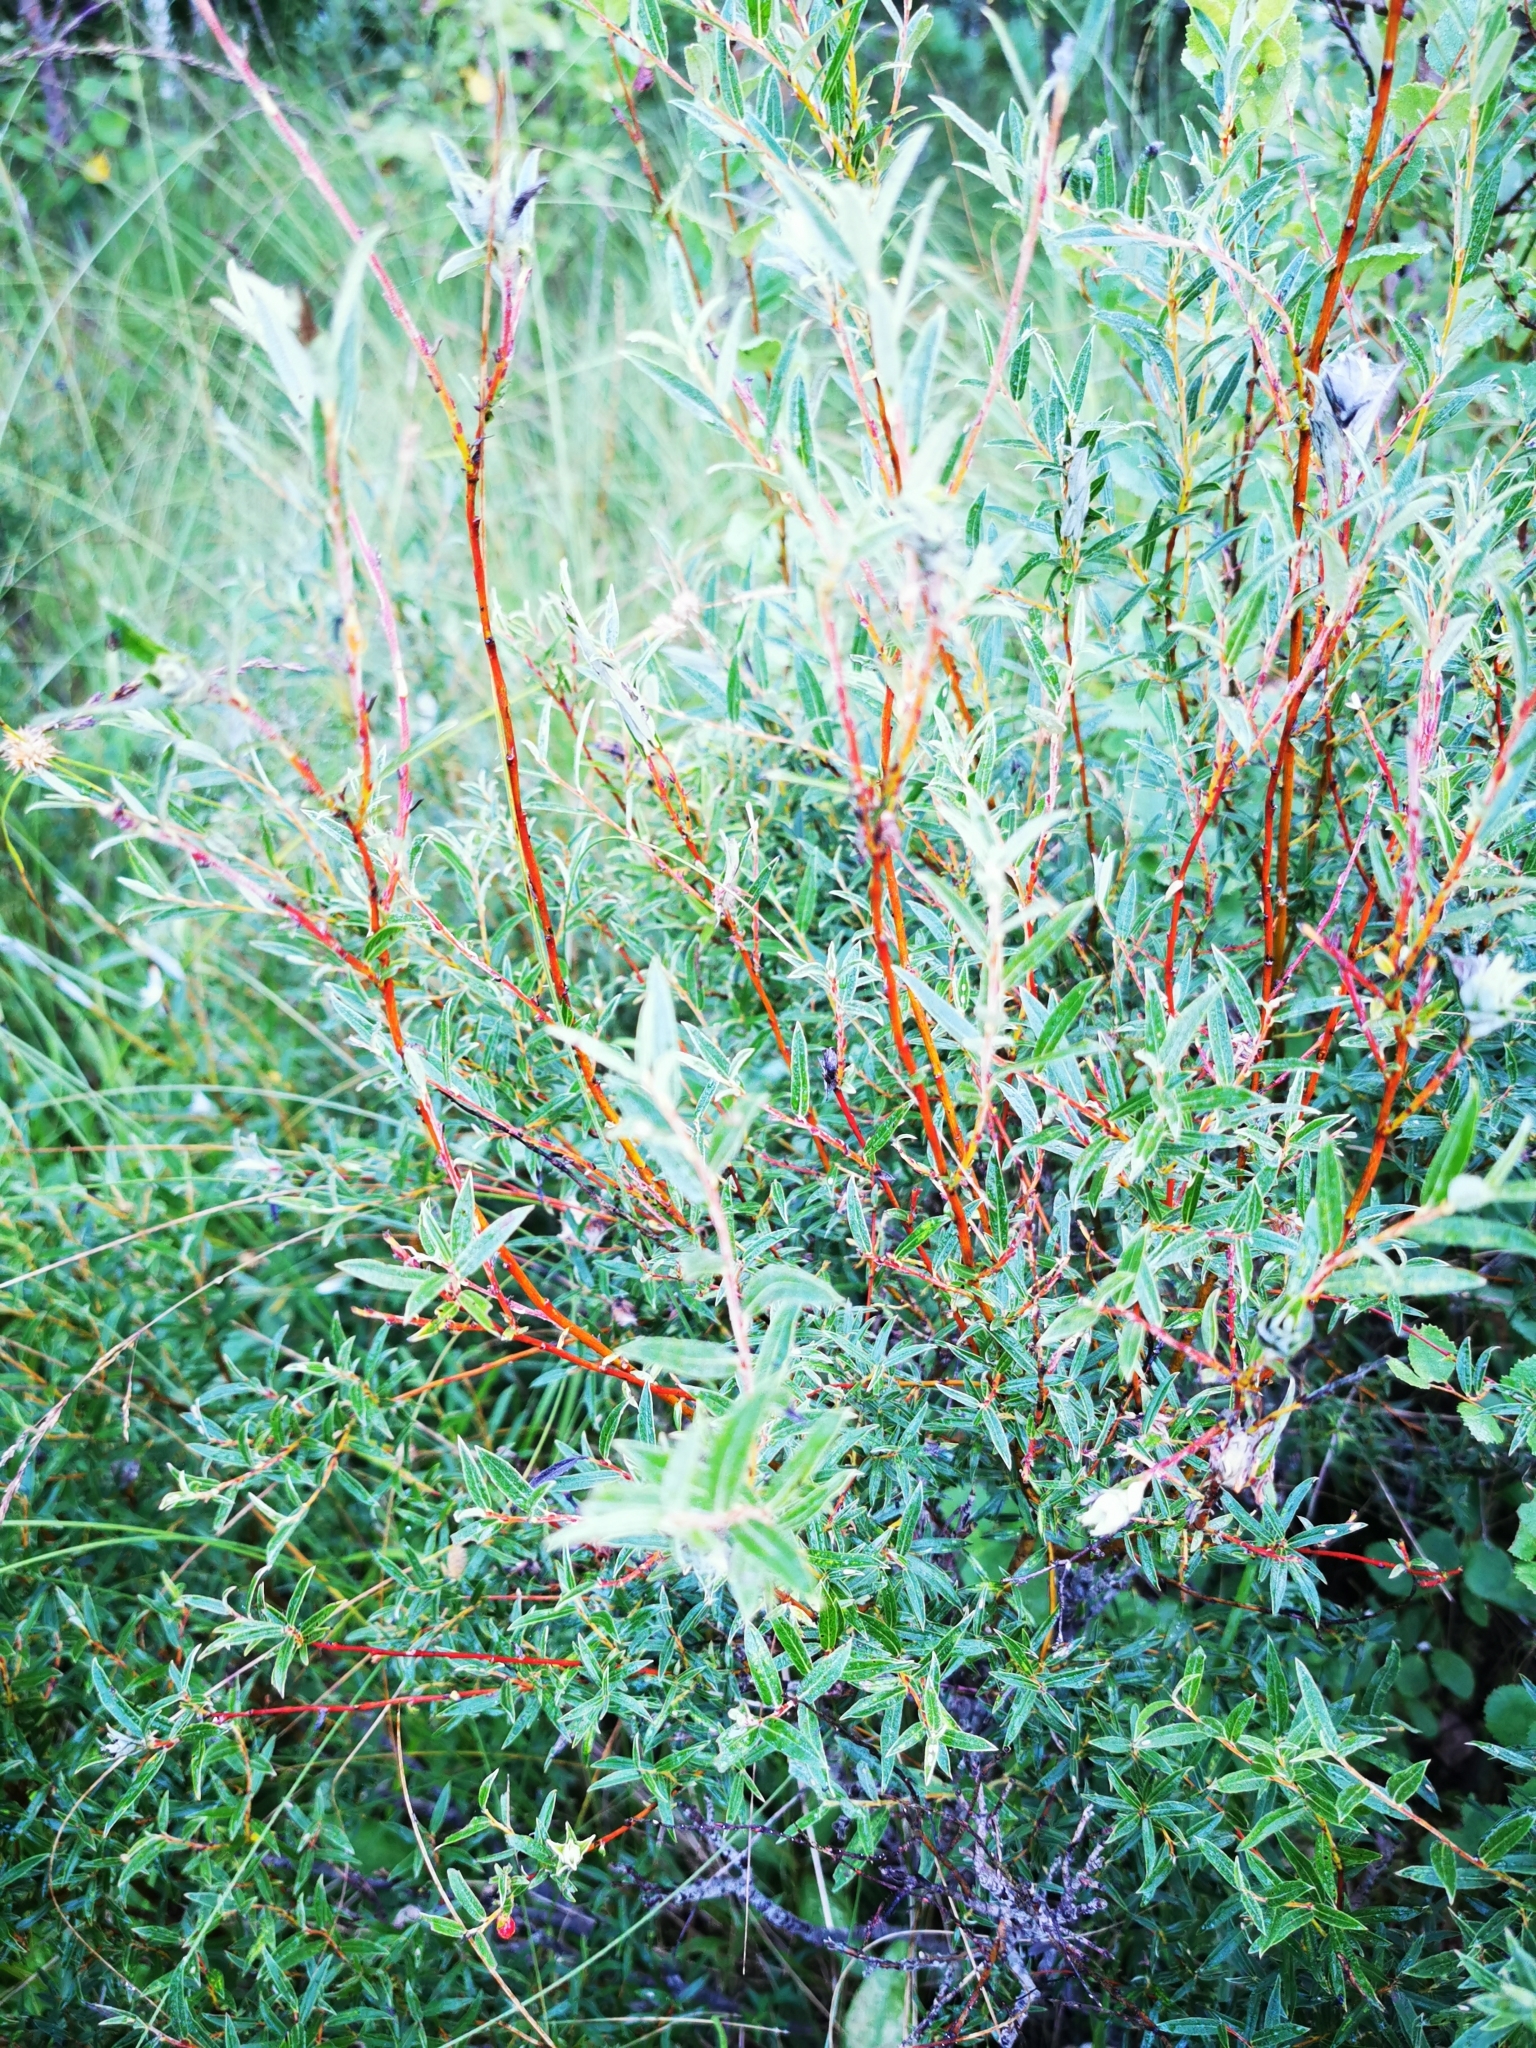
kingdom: Plantae
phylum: Tracheophyta
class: Magnoliopsida
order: Malpighiales
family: Salicaceae
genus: Salix
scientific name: Salix rosmarinifolia
